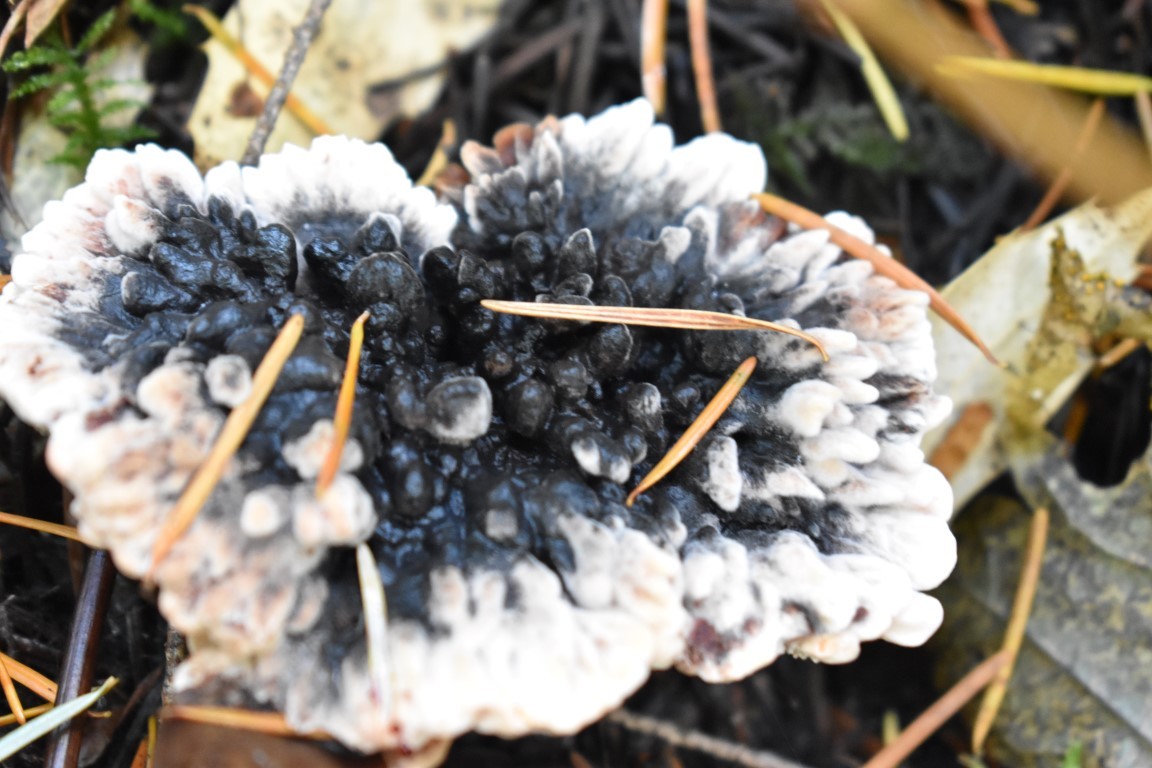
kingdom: Fungi
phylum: Basidiomycota
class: Agaricomycetes
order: Thelephorales
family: Bankeraceae
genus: Hydnellum
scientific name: Hydnellum peckii
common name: Devil's tooth
